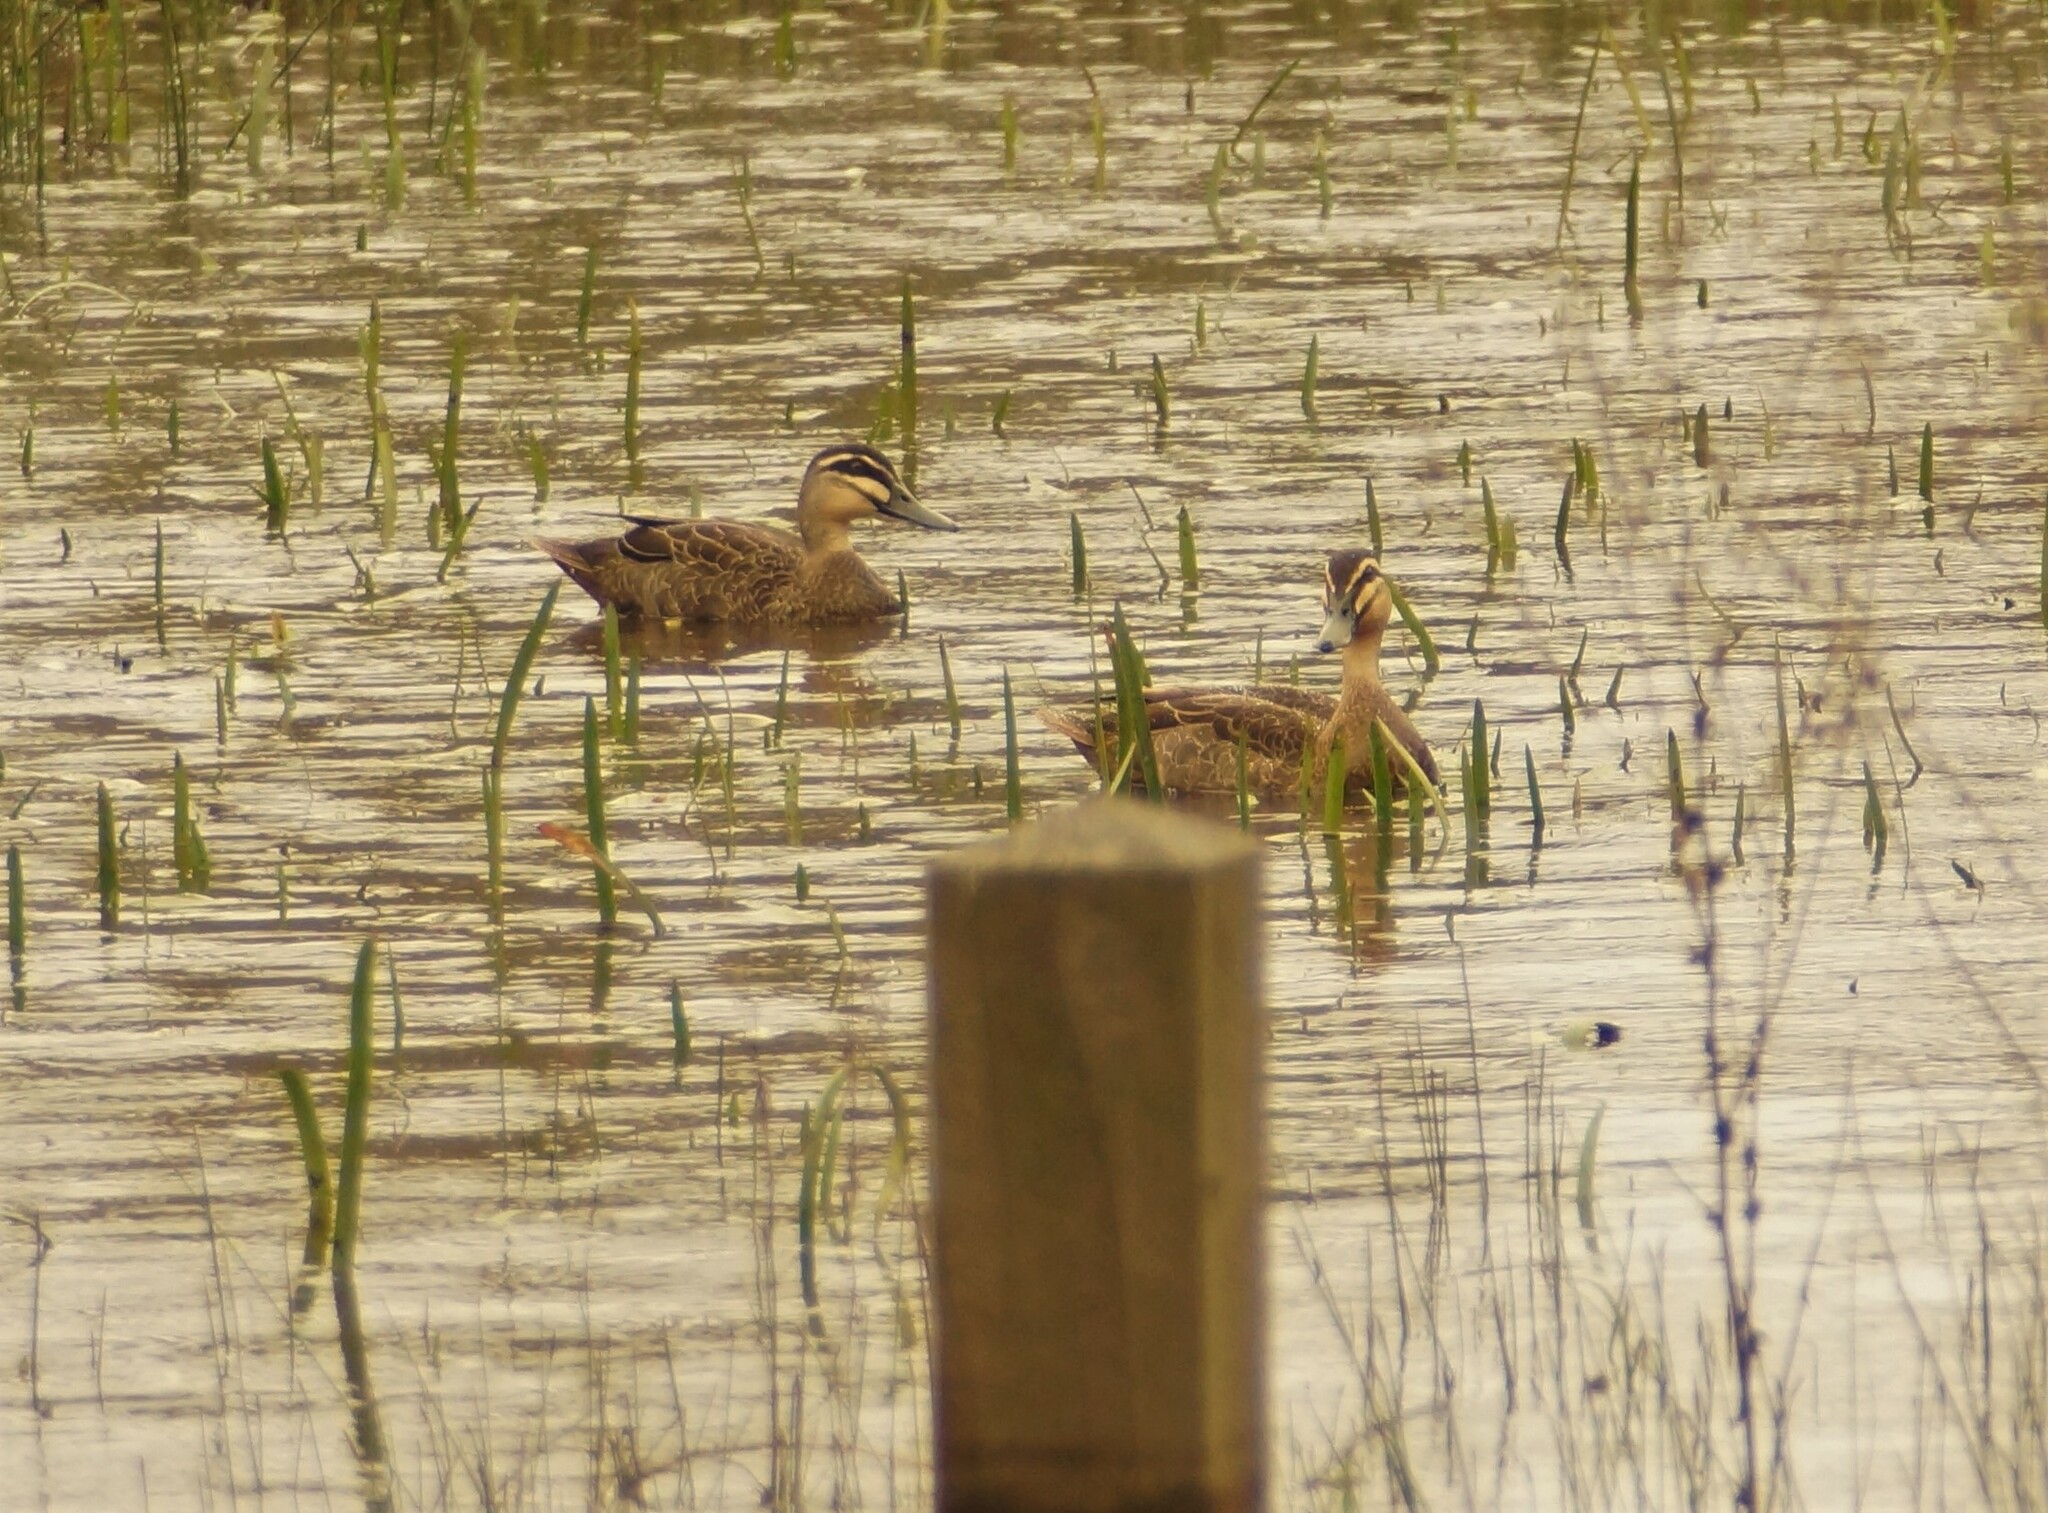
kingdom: Animalia
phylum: Chordata
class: Aves
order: Anseriformes
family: Anatidae
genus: Anas
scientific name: Anas superciliosa
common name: Pacific black duck
